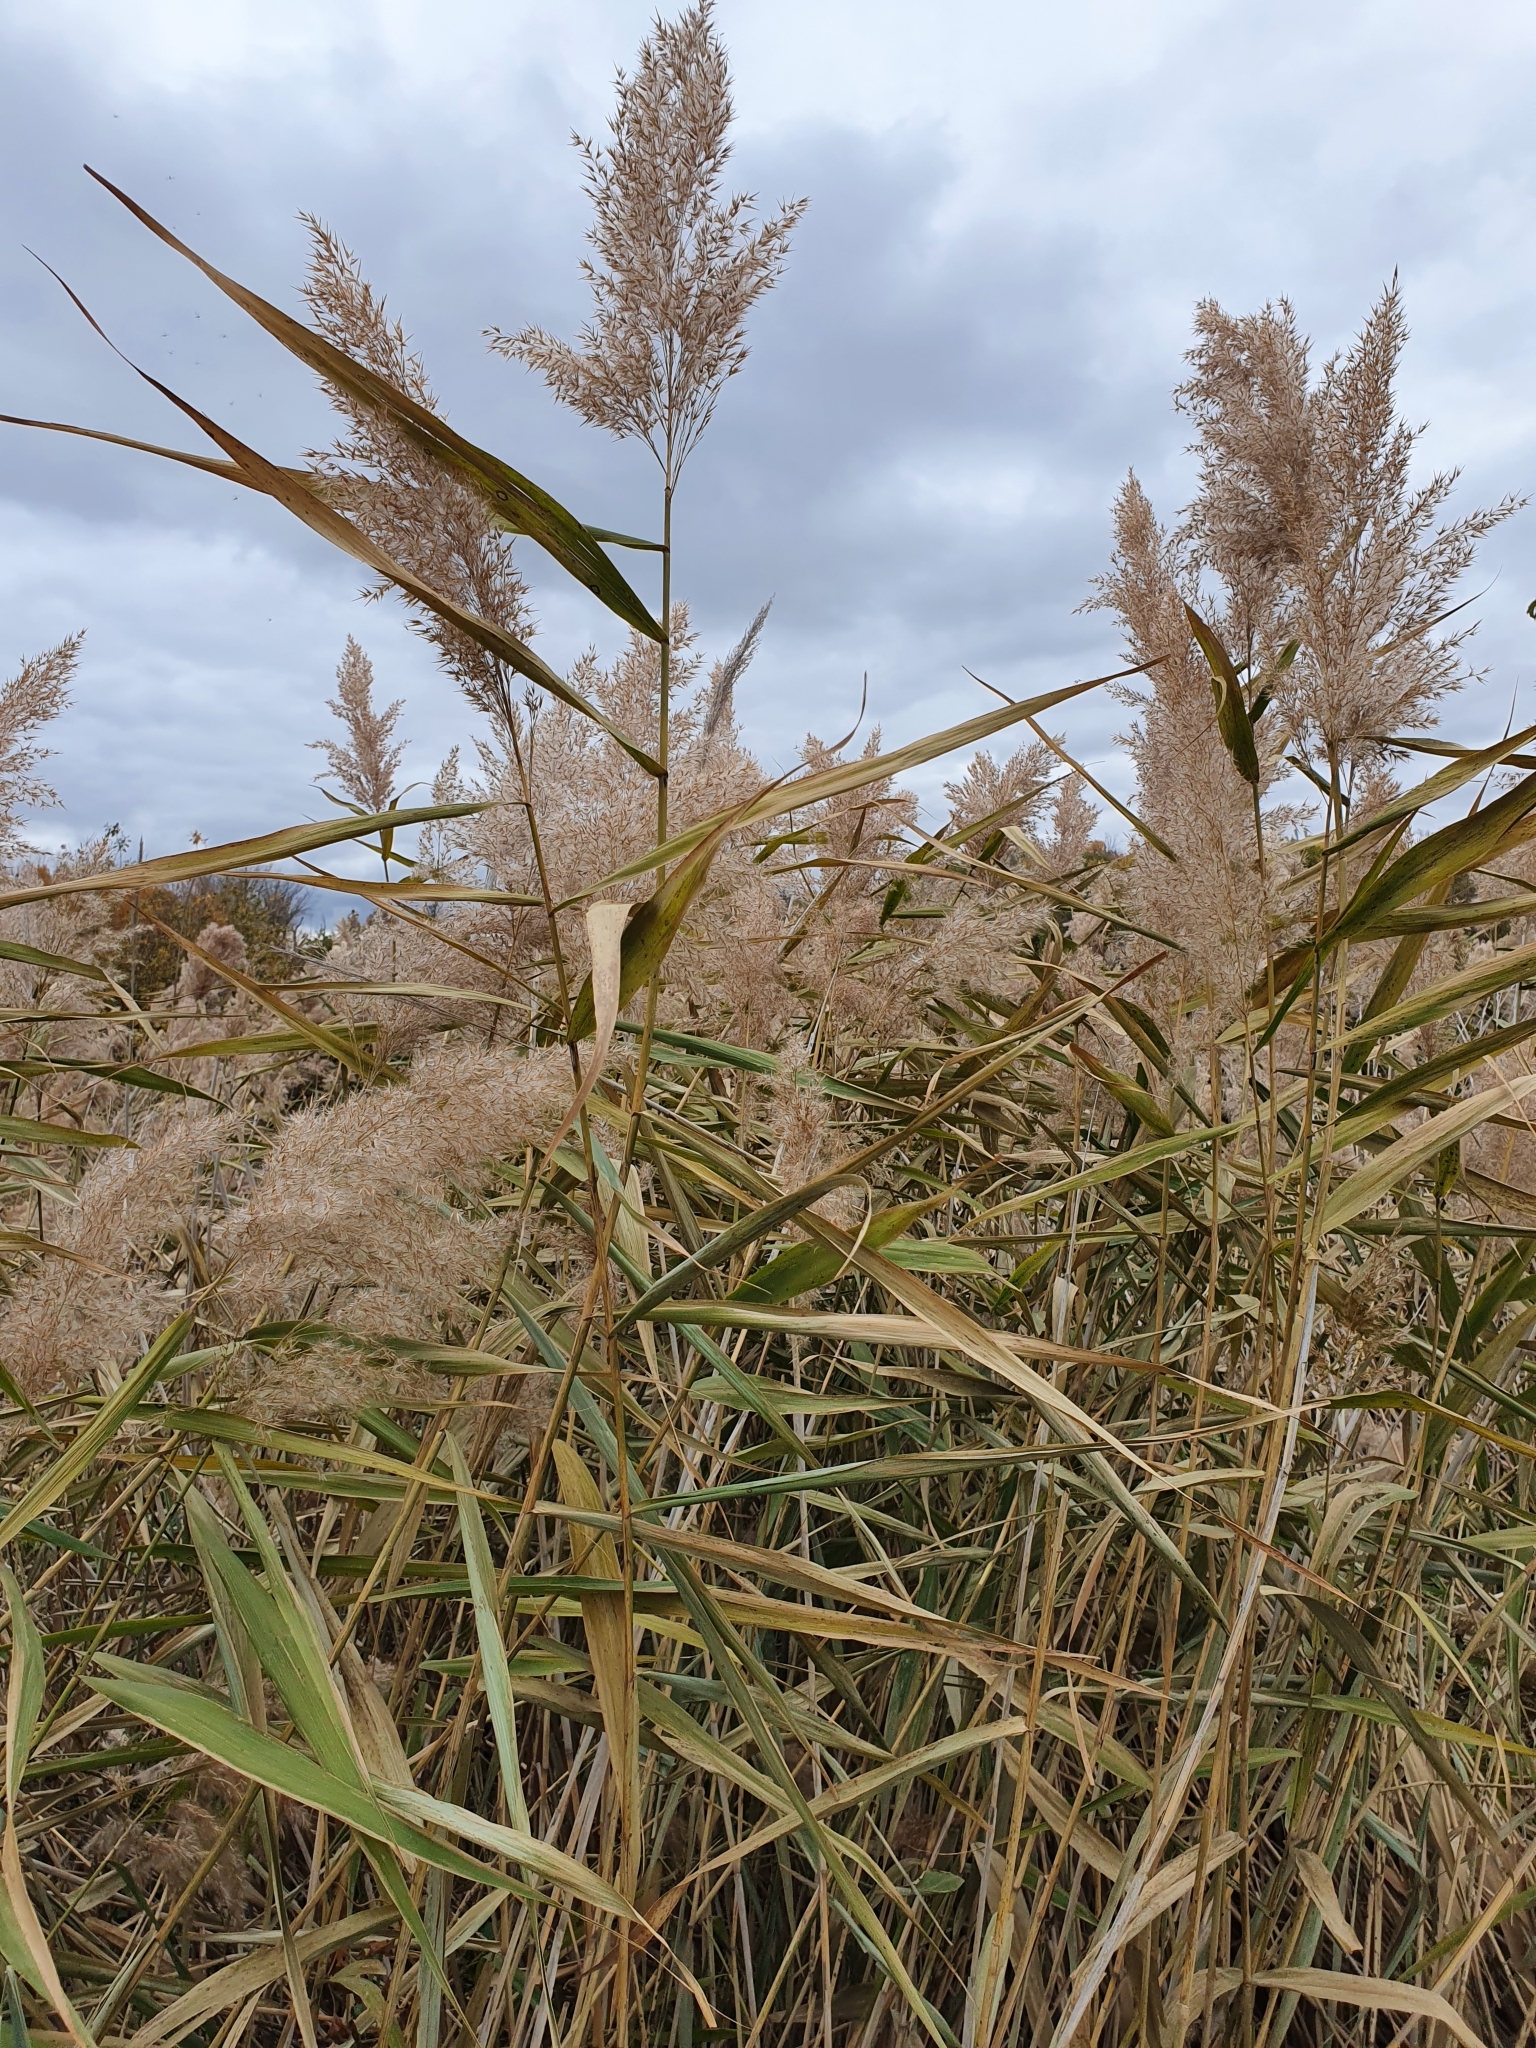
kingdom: Plantae
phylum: Tracheophyta
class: Liliopsida
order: Poales
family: Poaceae
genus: Phragmites
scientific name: Phragmites australis
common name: Common reed
